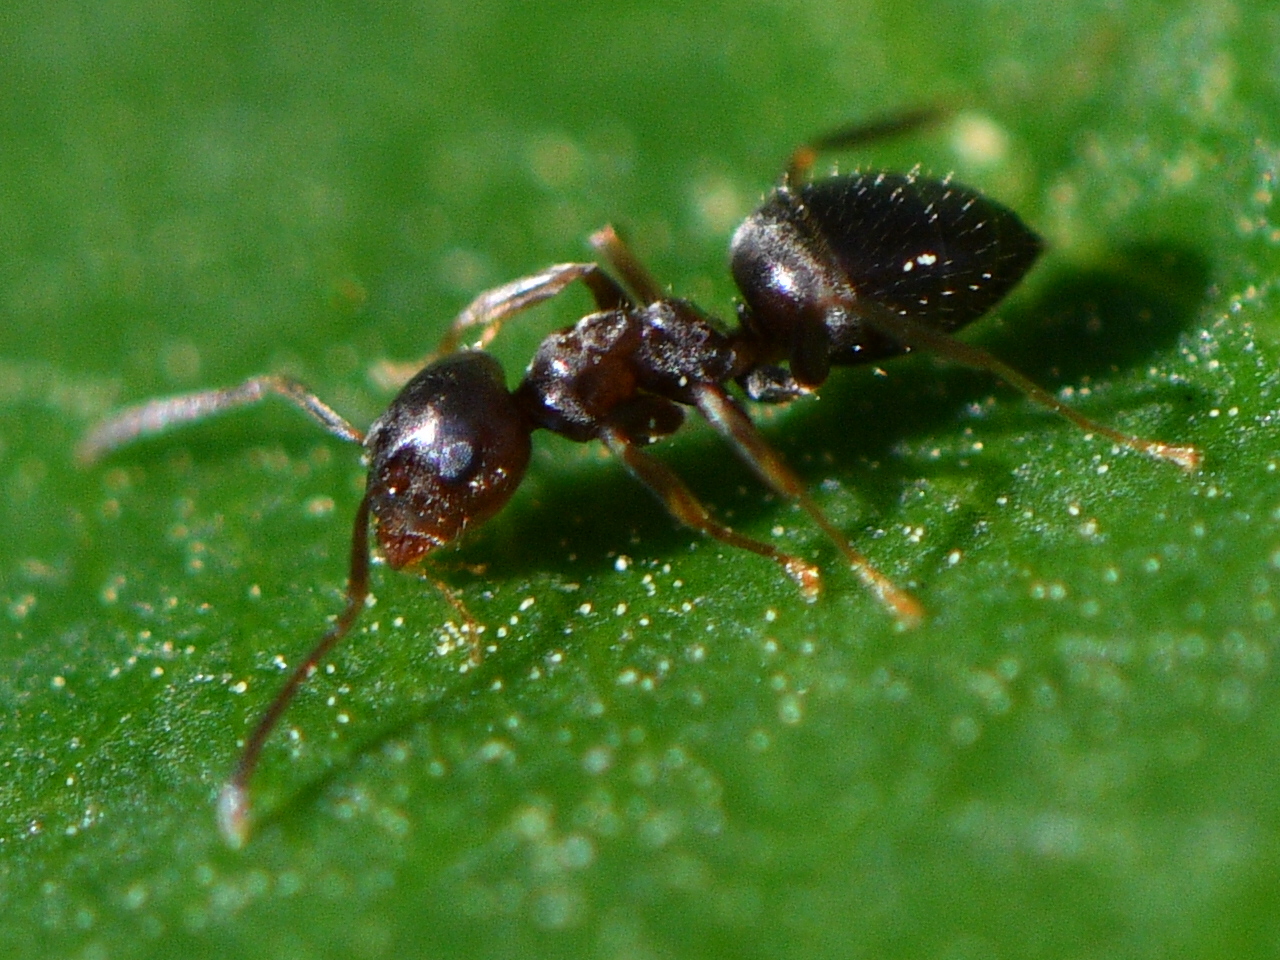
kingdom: Animalia
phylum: Arthropoda
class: Insecta
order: Hymenoptera
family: Formicidae
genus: Lasius
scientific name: Lasius americanus
